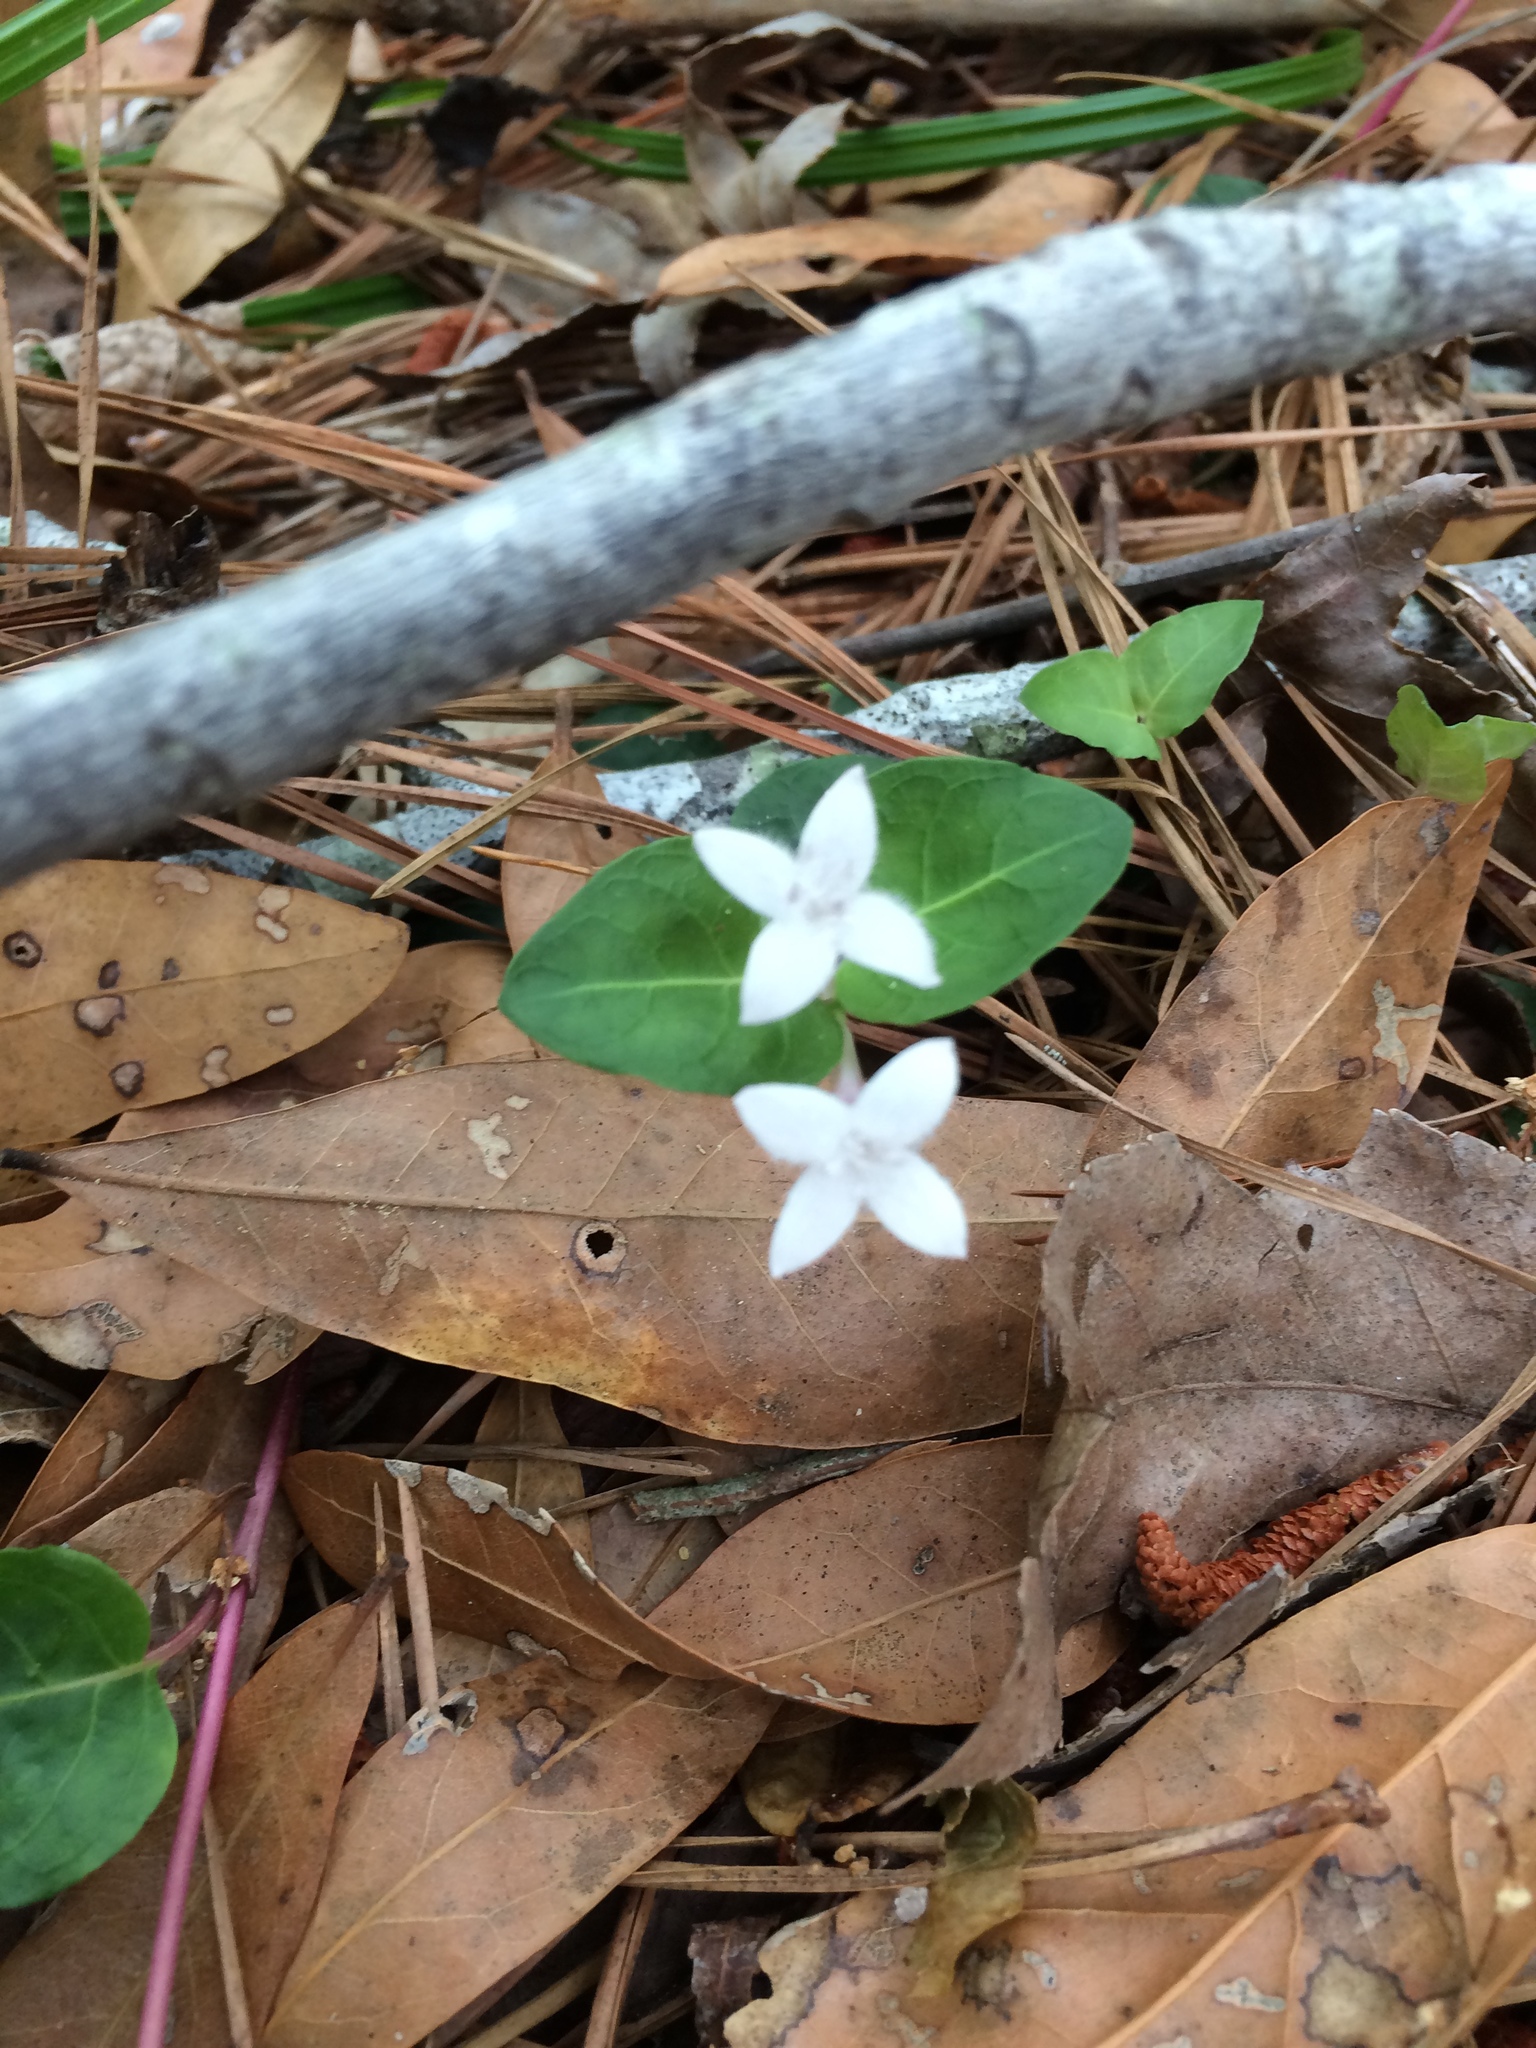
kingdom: Plantae
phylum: Tracheophyta
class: Magnoliopsida
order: Gentianales
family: Rubiaceae
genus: Mitchella
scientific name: Mitchella repens
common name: Partridge-berry
